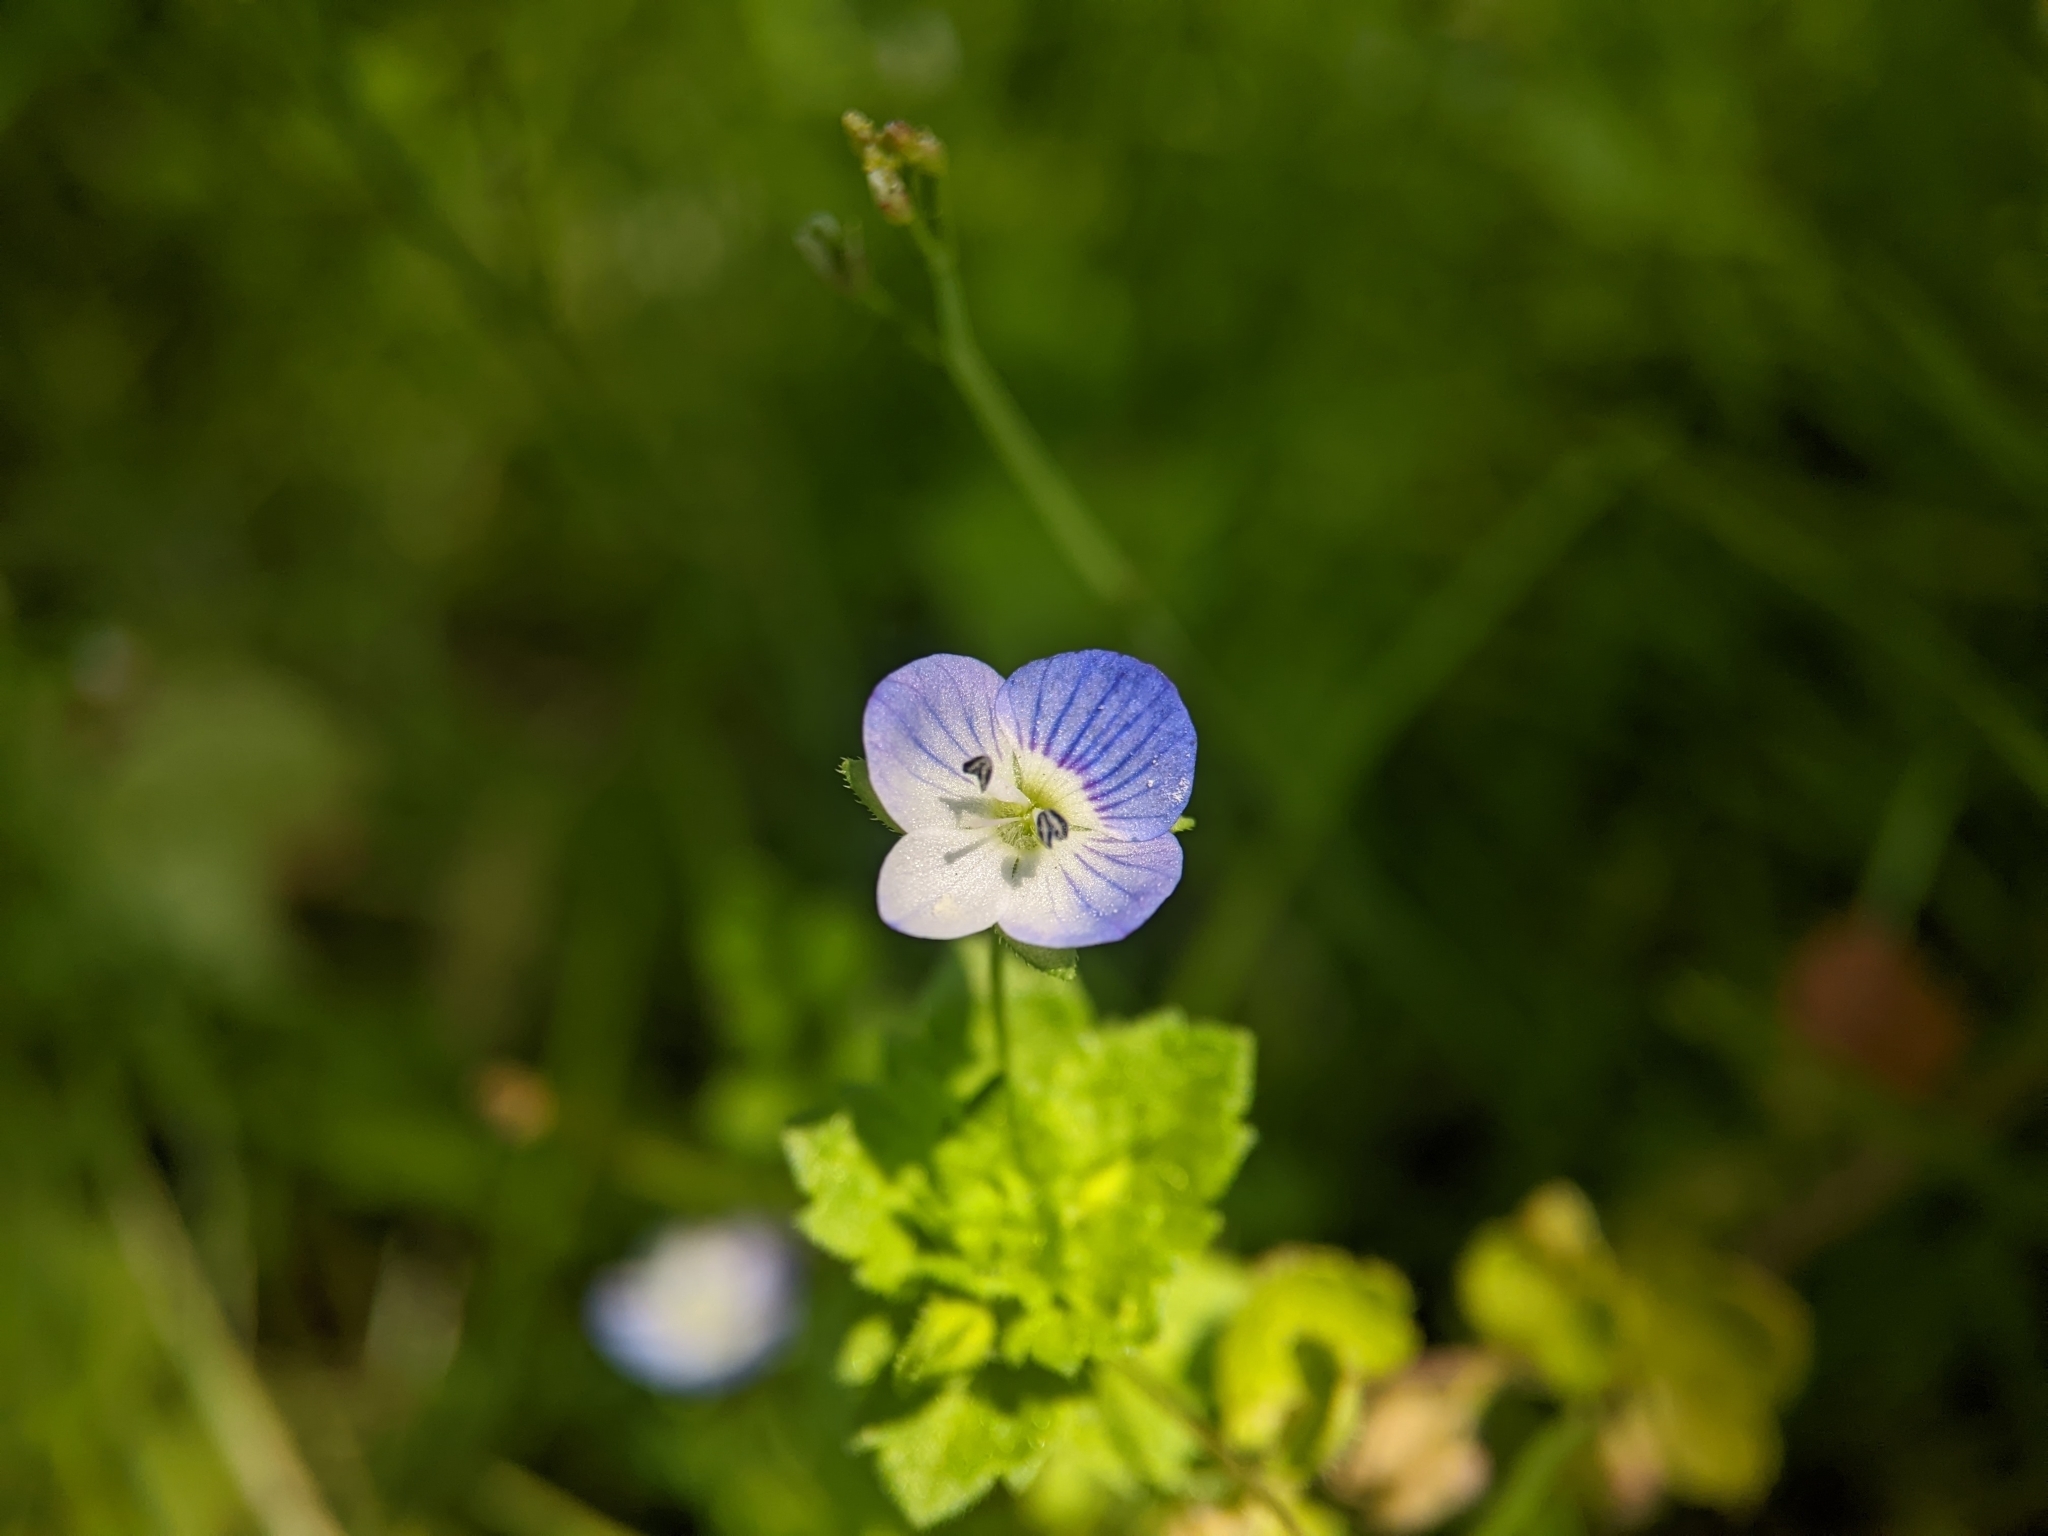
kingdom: Plantae
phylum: Tracheophyta
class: Magnoliopsida
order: Lamiales
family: Plantaginaceae
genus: Veronica
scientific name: Veronica persica
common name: Common field-speedwell
